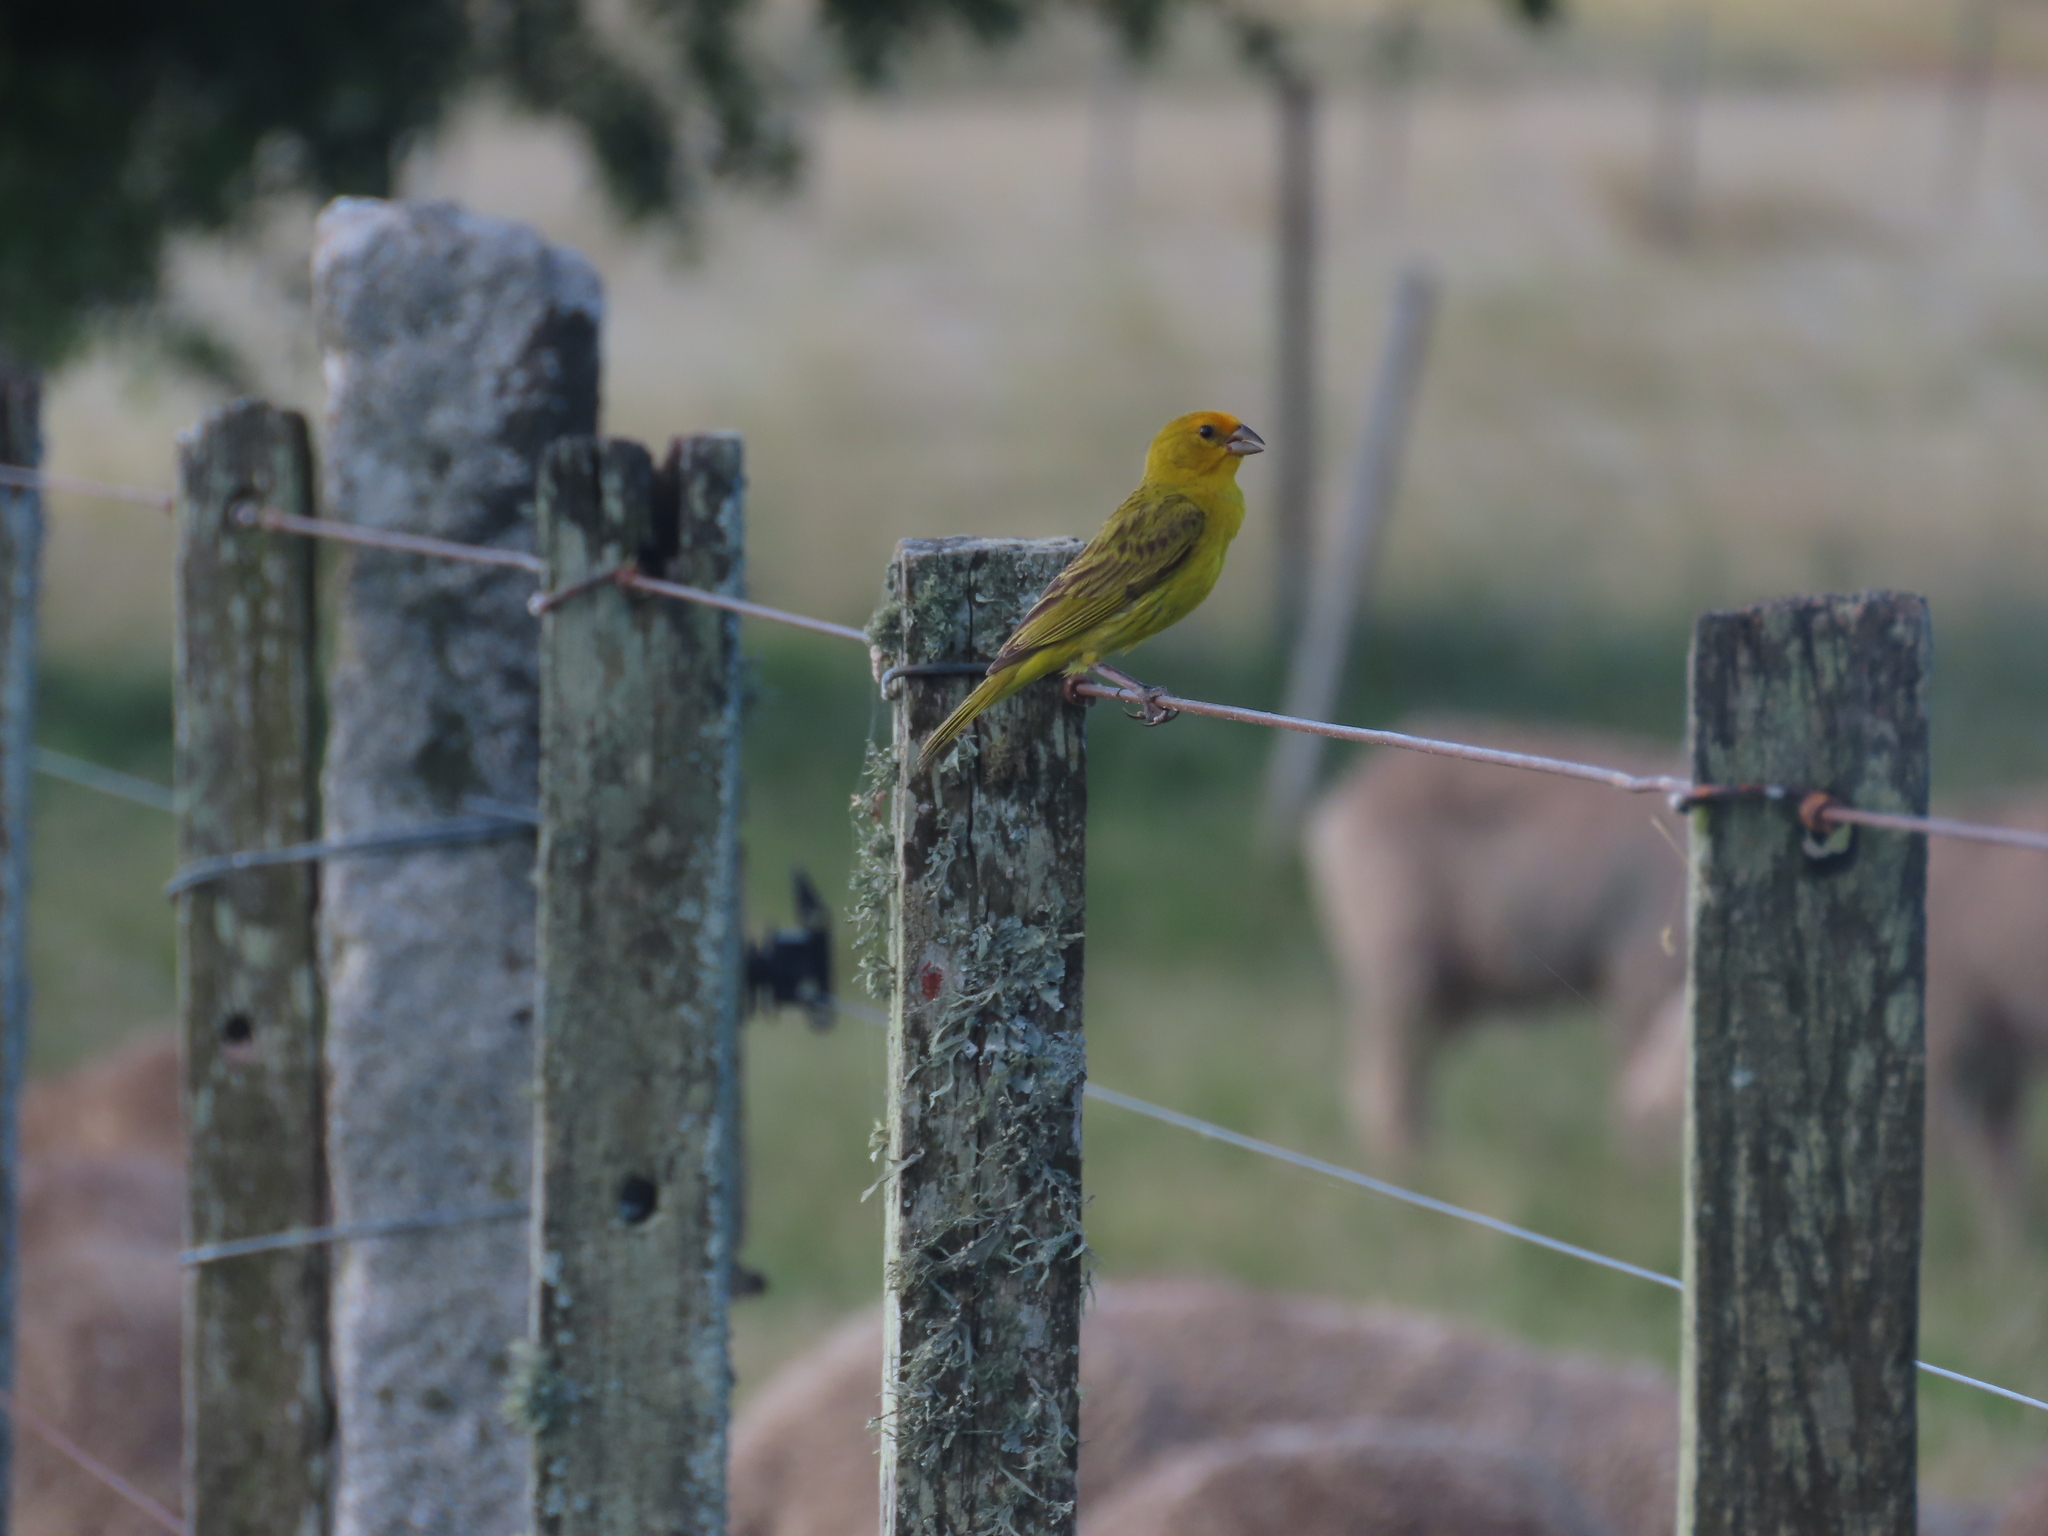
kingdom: Animalia
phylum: Chordata
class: Aves
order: Passeriformes
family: Thraupidae
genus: Sicalis
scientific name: Sicalis flaveola
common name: Saffron finch
